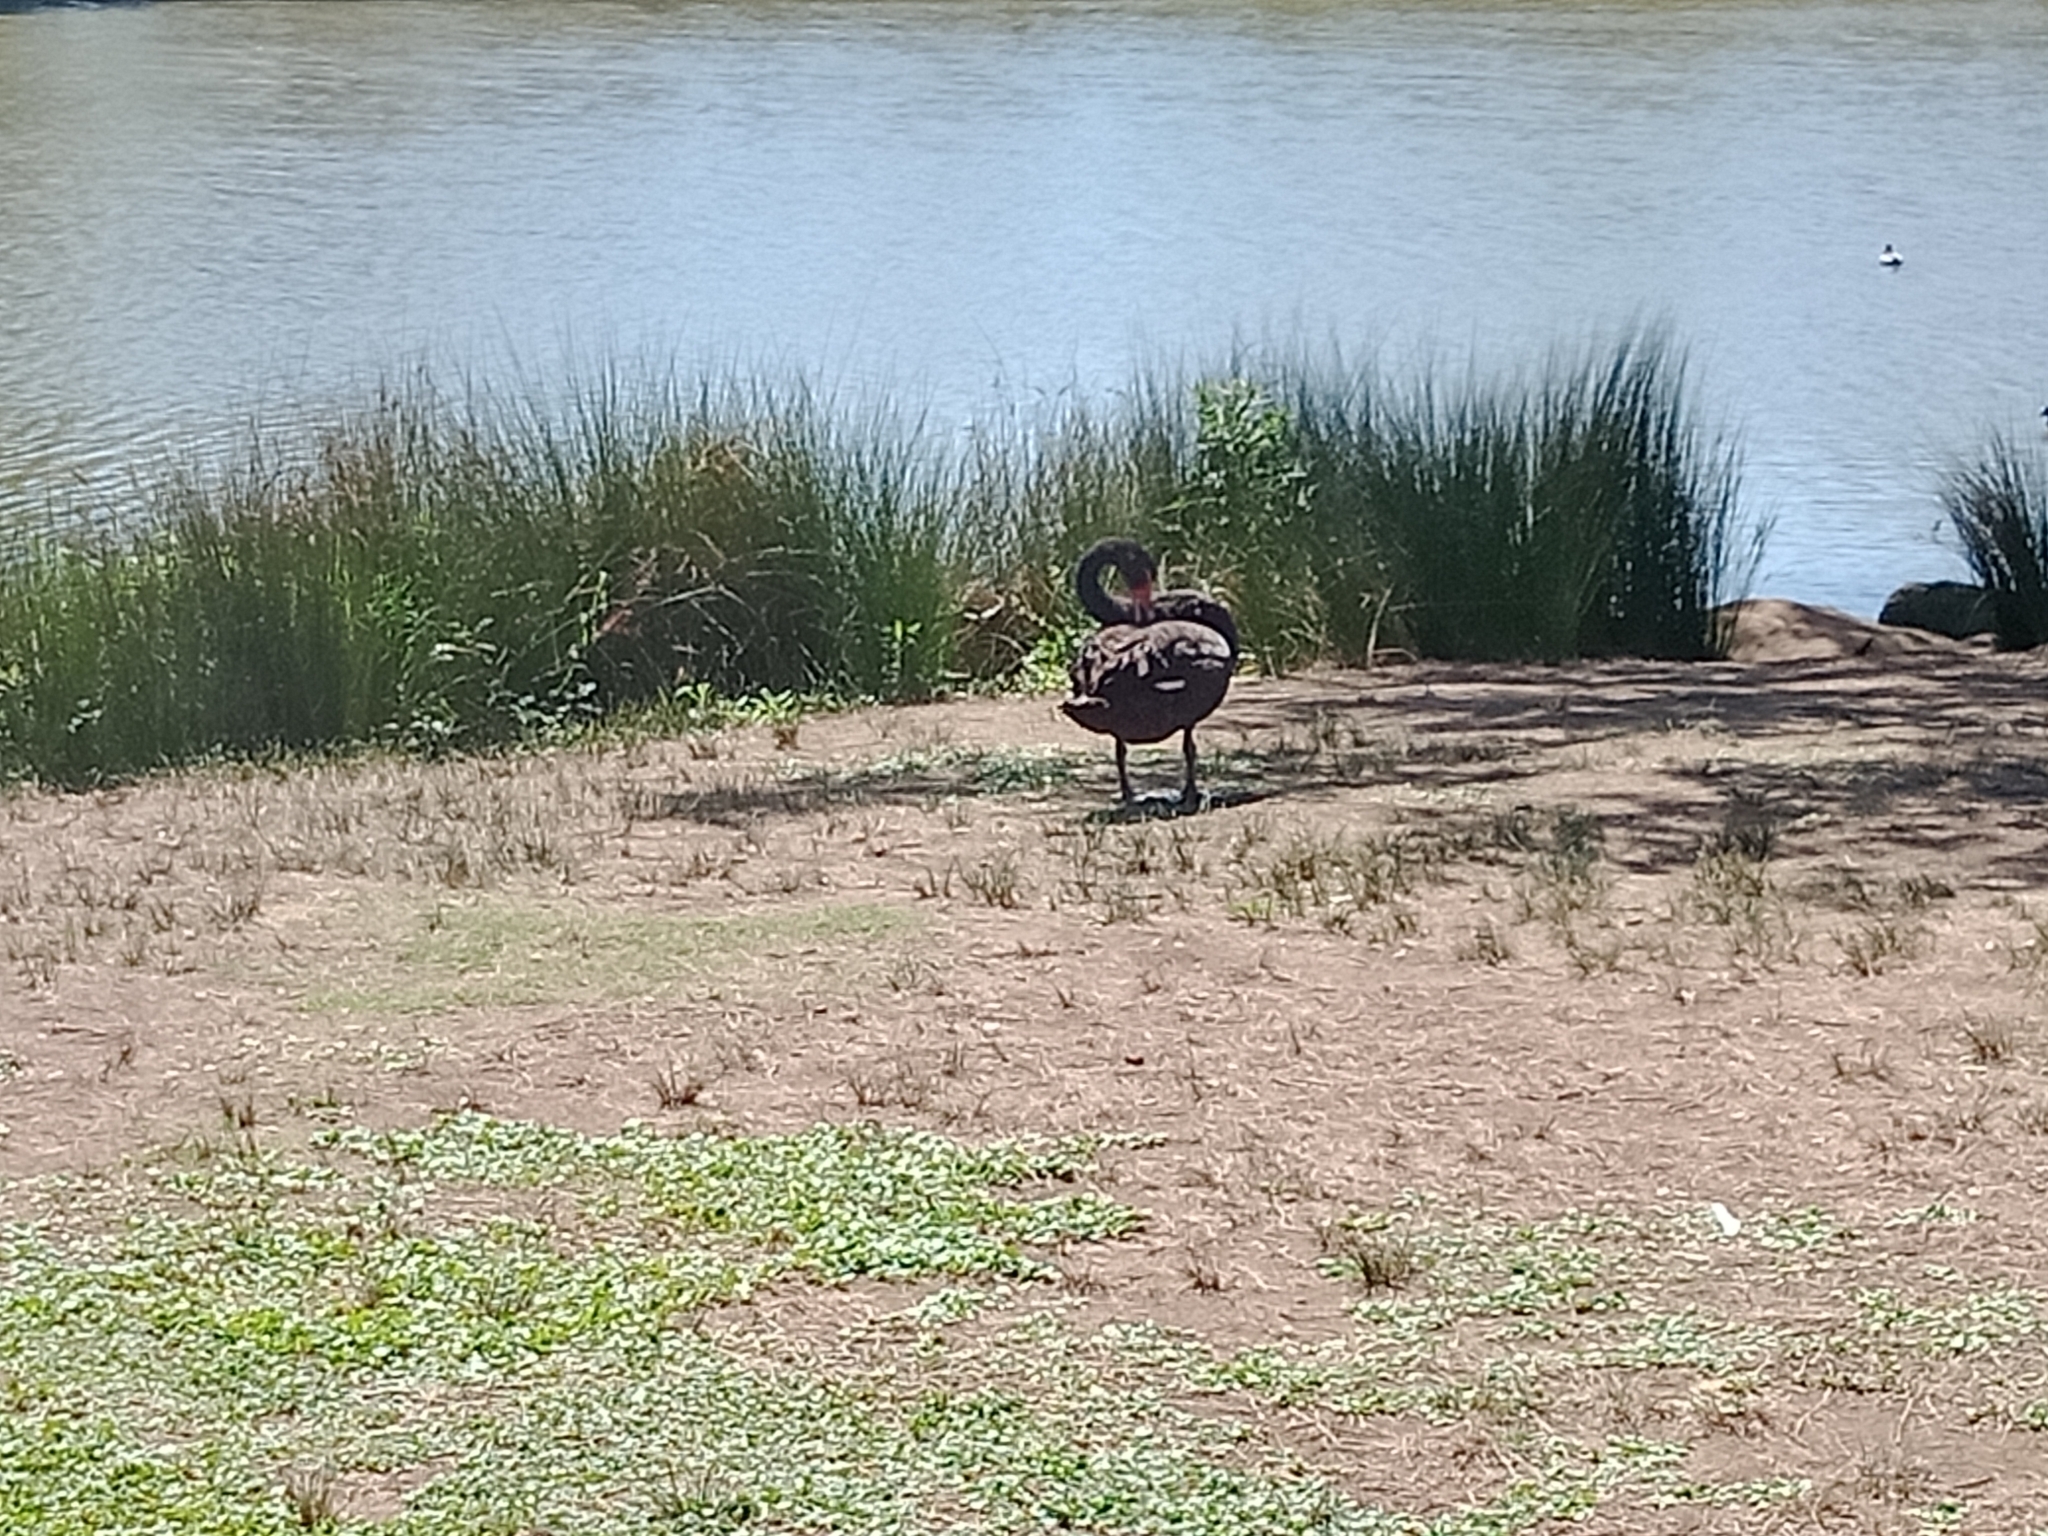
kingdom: Animalia
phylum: Chordata
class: Aves
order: Anseriformes
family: Anatidae
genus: Cygnus
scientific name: Cygnus atratus
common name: Black swan
